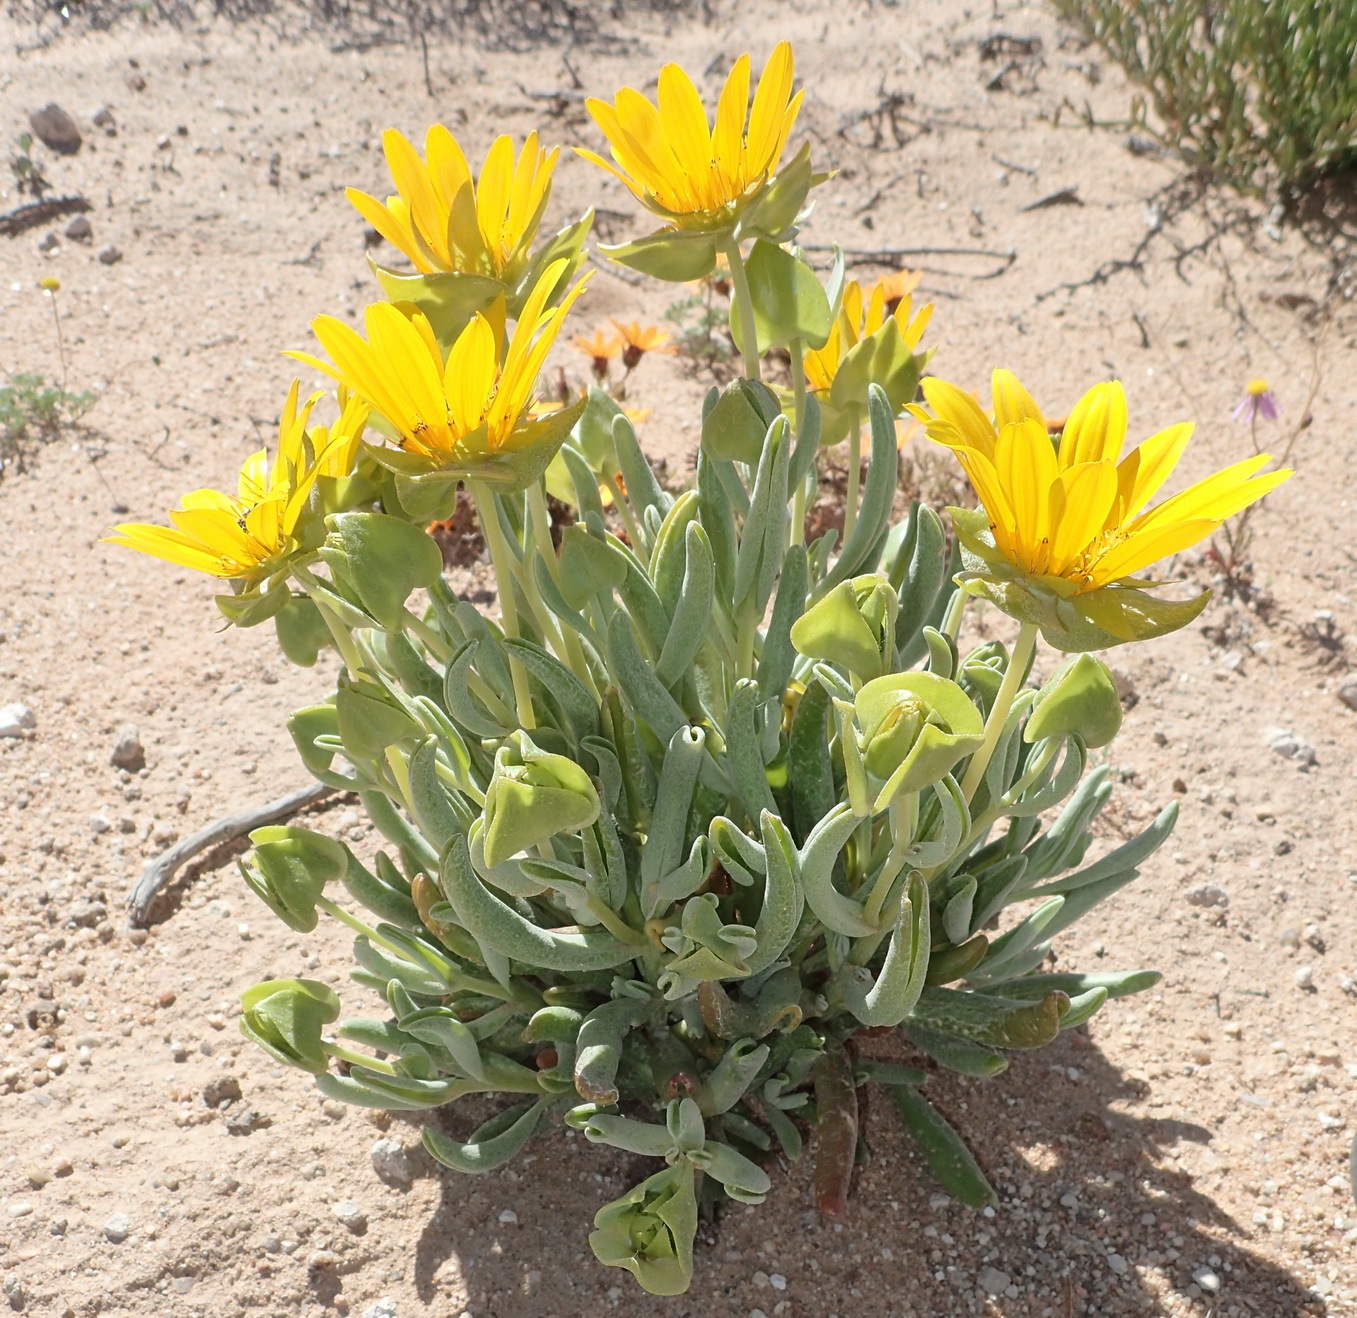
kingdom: Plantae
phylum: Tracheophyta
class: Magnoliopsida
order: Asterales
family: Asteraceae
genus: Didelta
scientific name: Didelta carnosa
